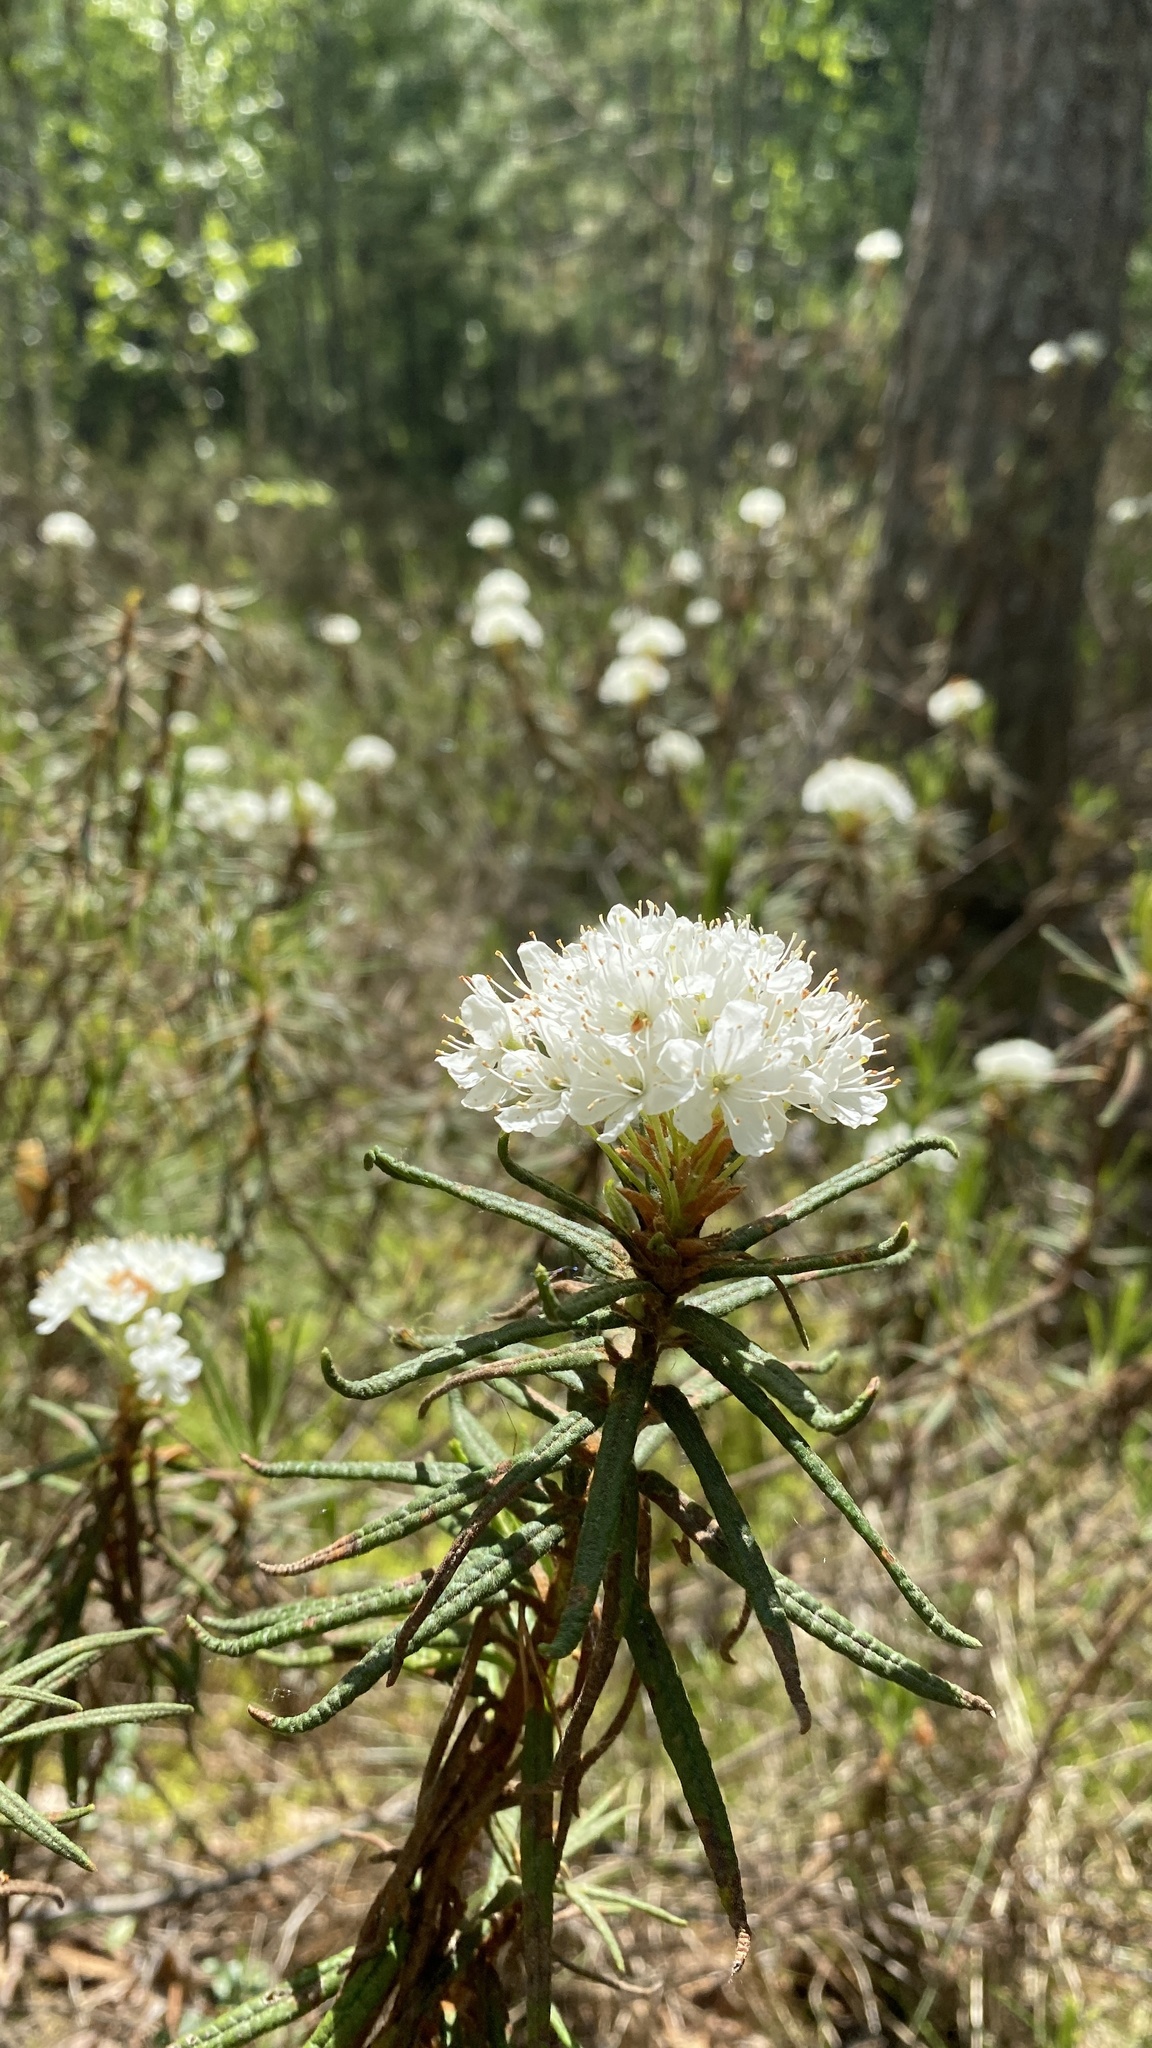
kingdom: Plantae
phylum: Tracheophyta
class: Magnoliopsida
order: Ericales
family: Ericaceae
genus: Rhododendron
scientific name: Rhododendron tomentosum
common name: Marsh labrador tea
